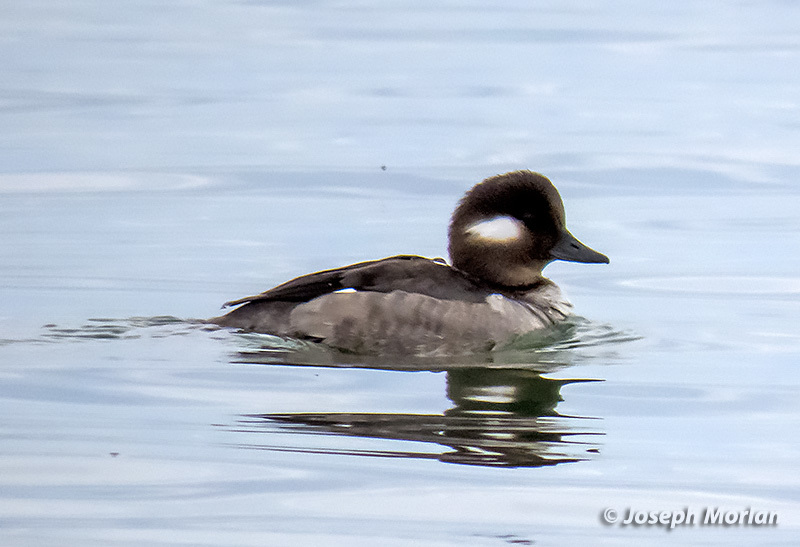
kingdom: Animalia
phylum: Chordata
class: Aves
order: Anseriformes
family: Anatidae
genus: Bucephala
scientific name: Bucephala albeola
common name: Bufflehead
